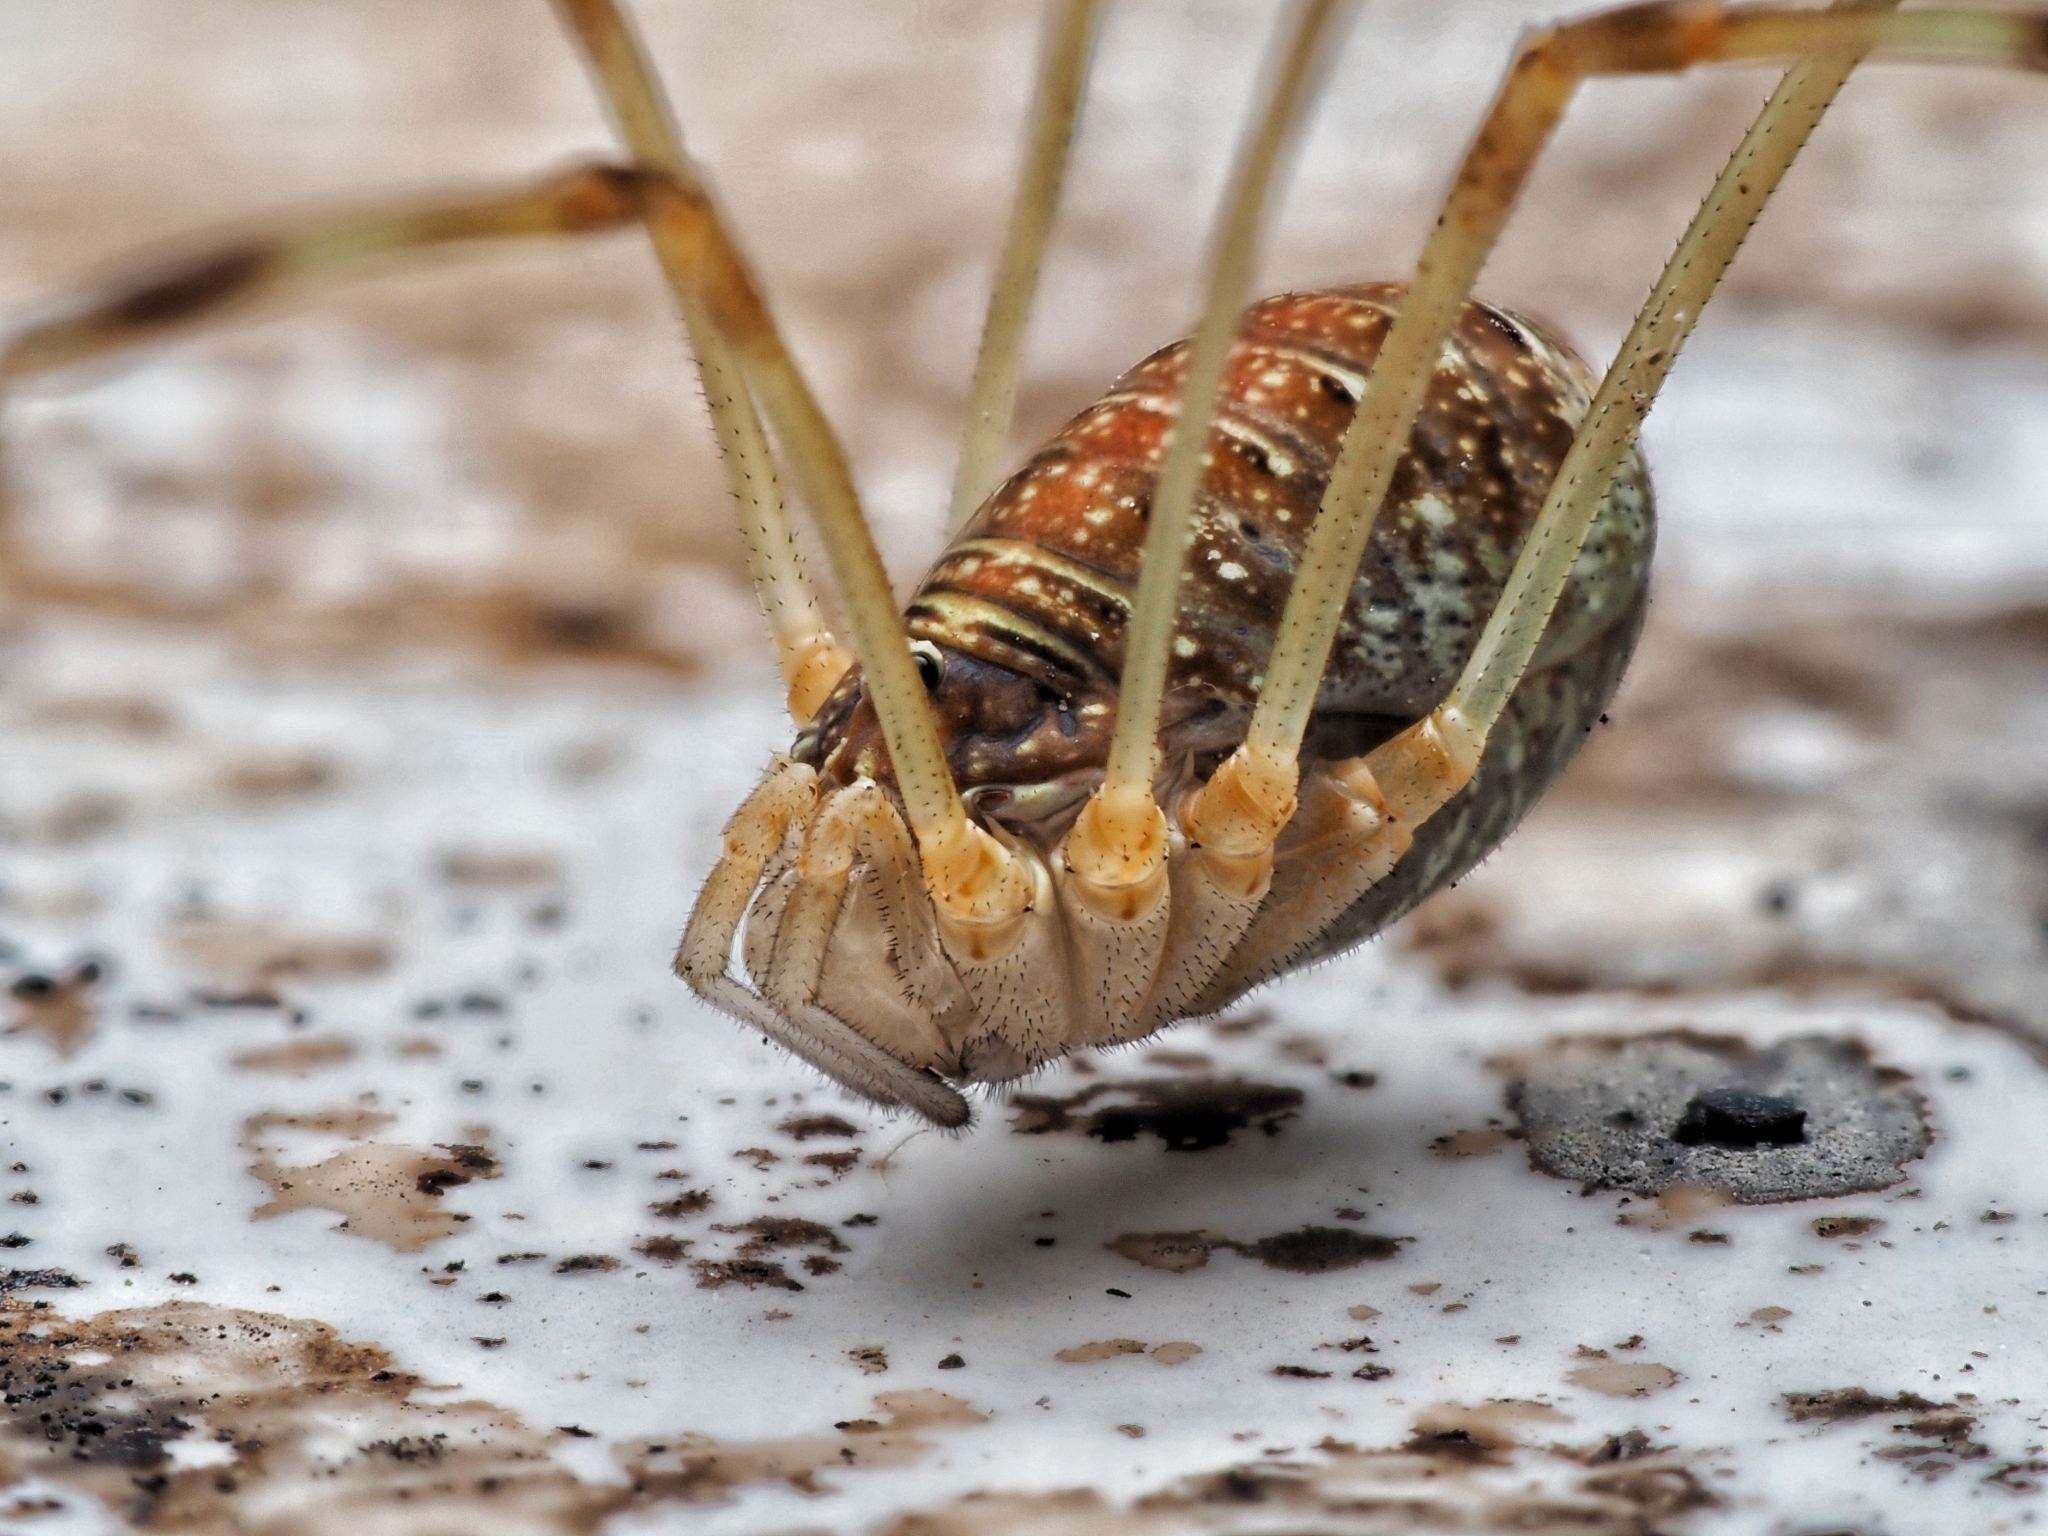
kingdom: Animalia
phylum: Arthropoda
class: Arachnida
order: Opiliones
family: Phalangiidae
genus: Opilio
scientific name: Opilio canestrinii
